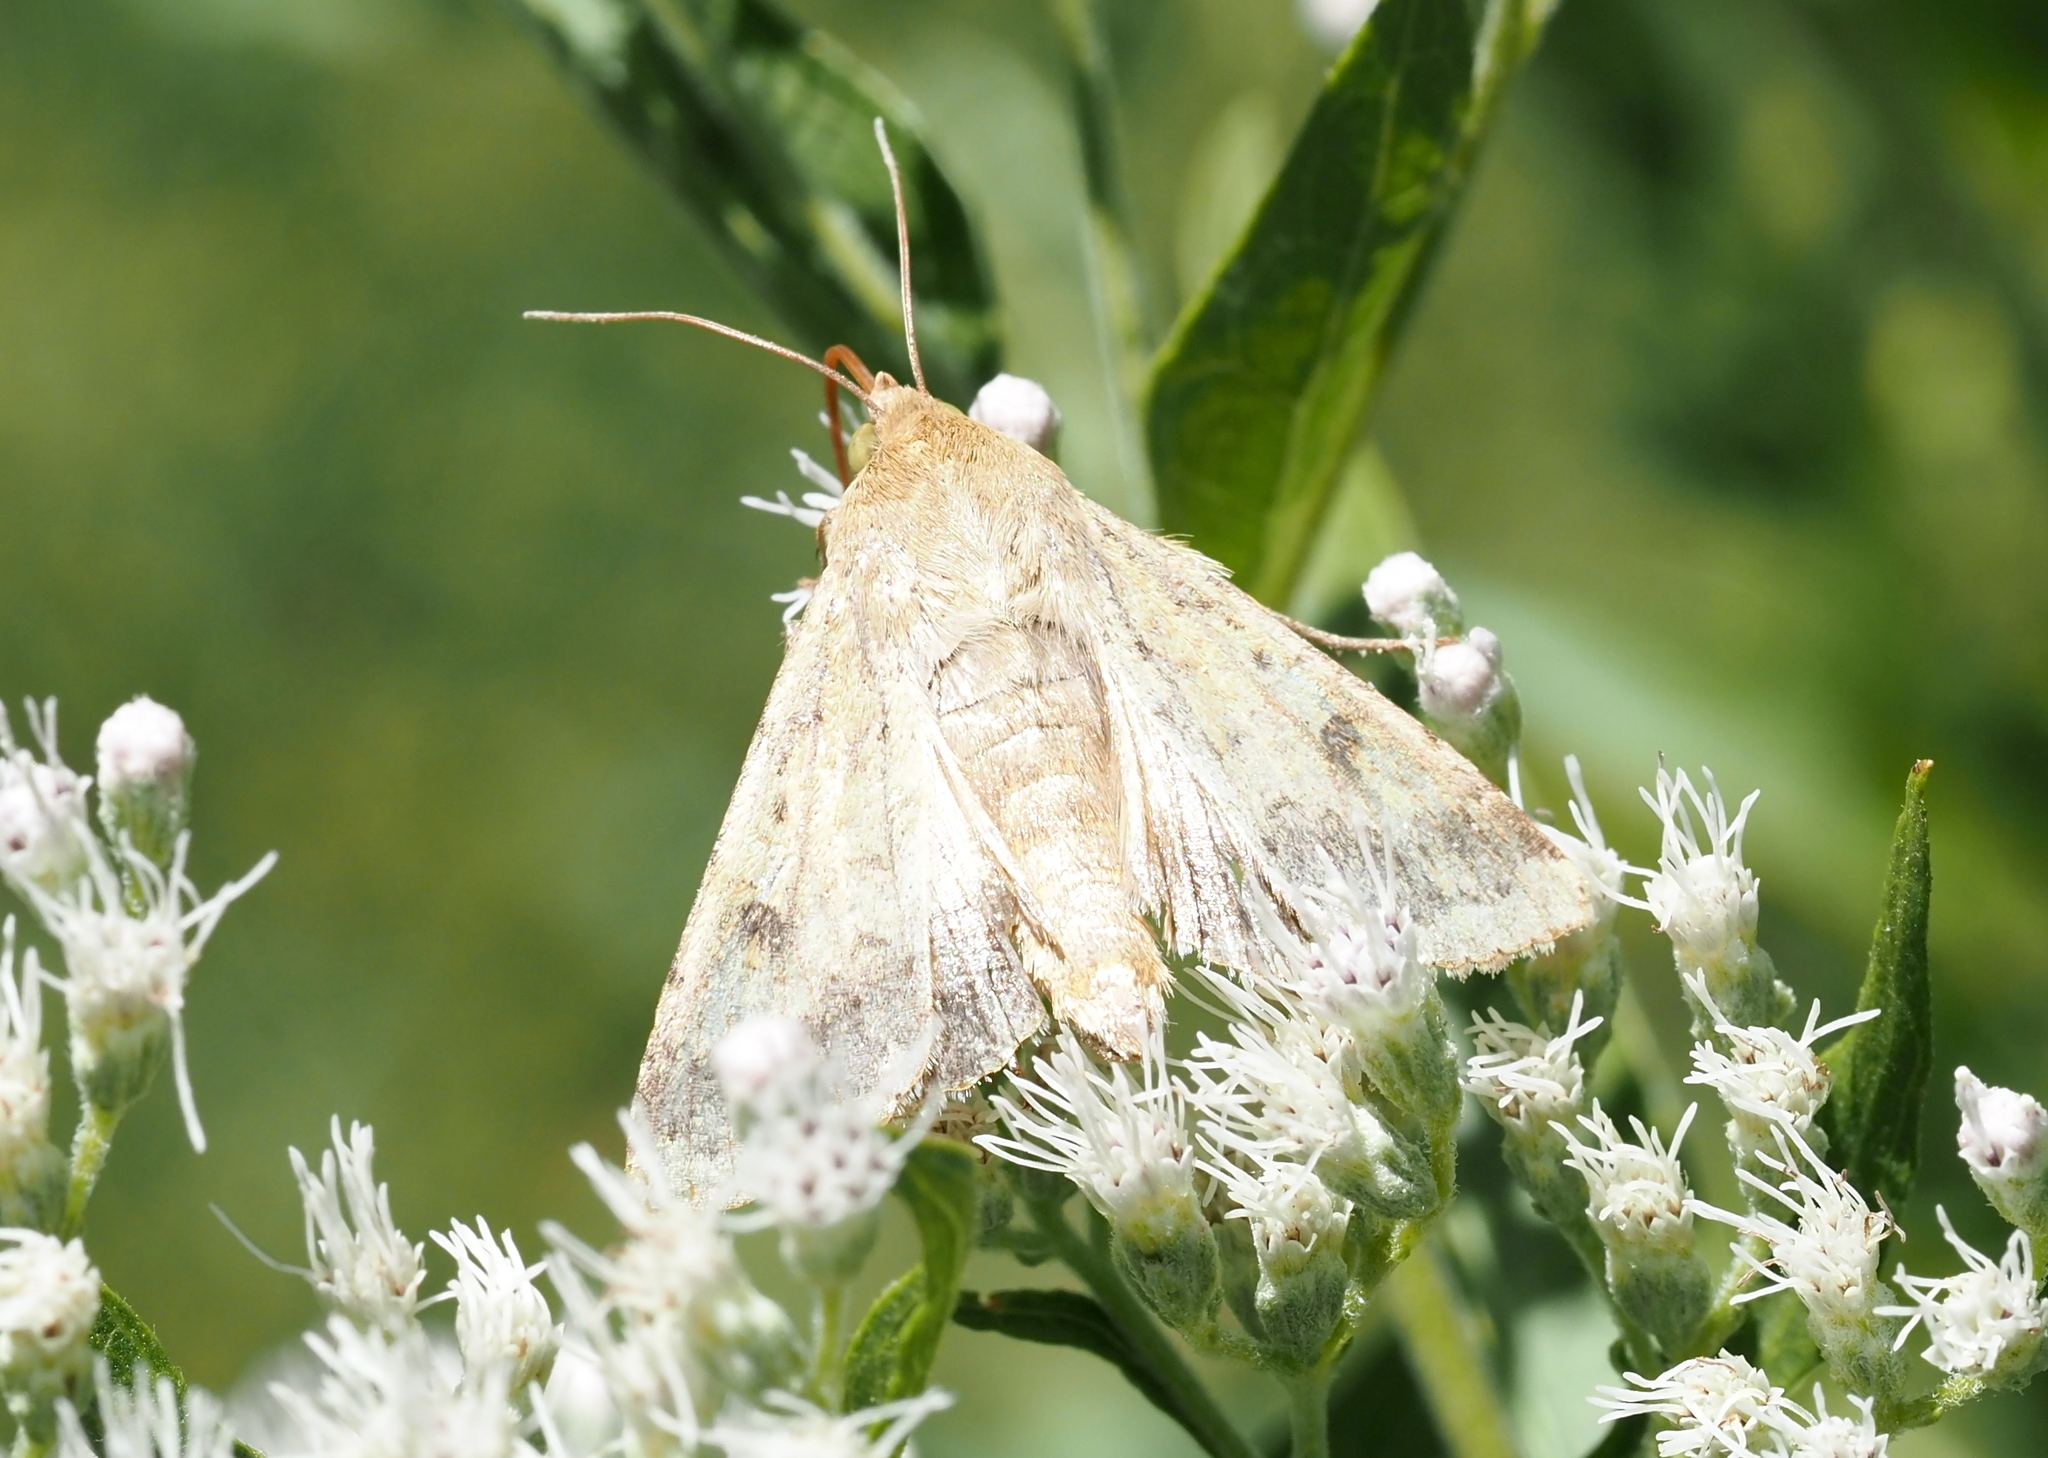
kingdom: Animalia
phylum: Arthropoda
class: Insecta
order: Lepidoptera
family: Noctuidae
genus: Helicoverpa
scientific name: Helicoverpa zea
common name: Bollworm
